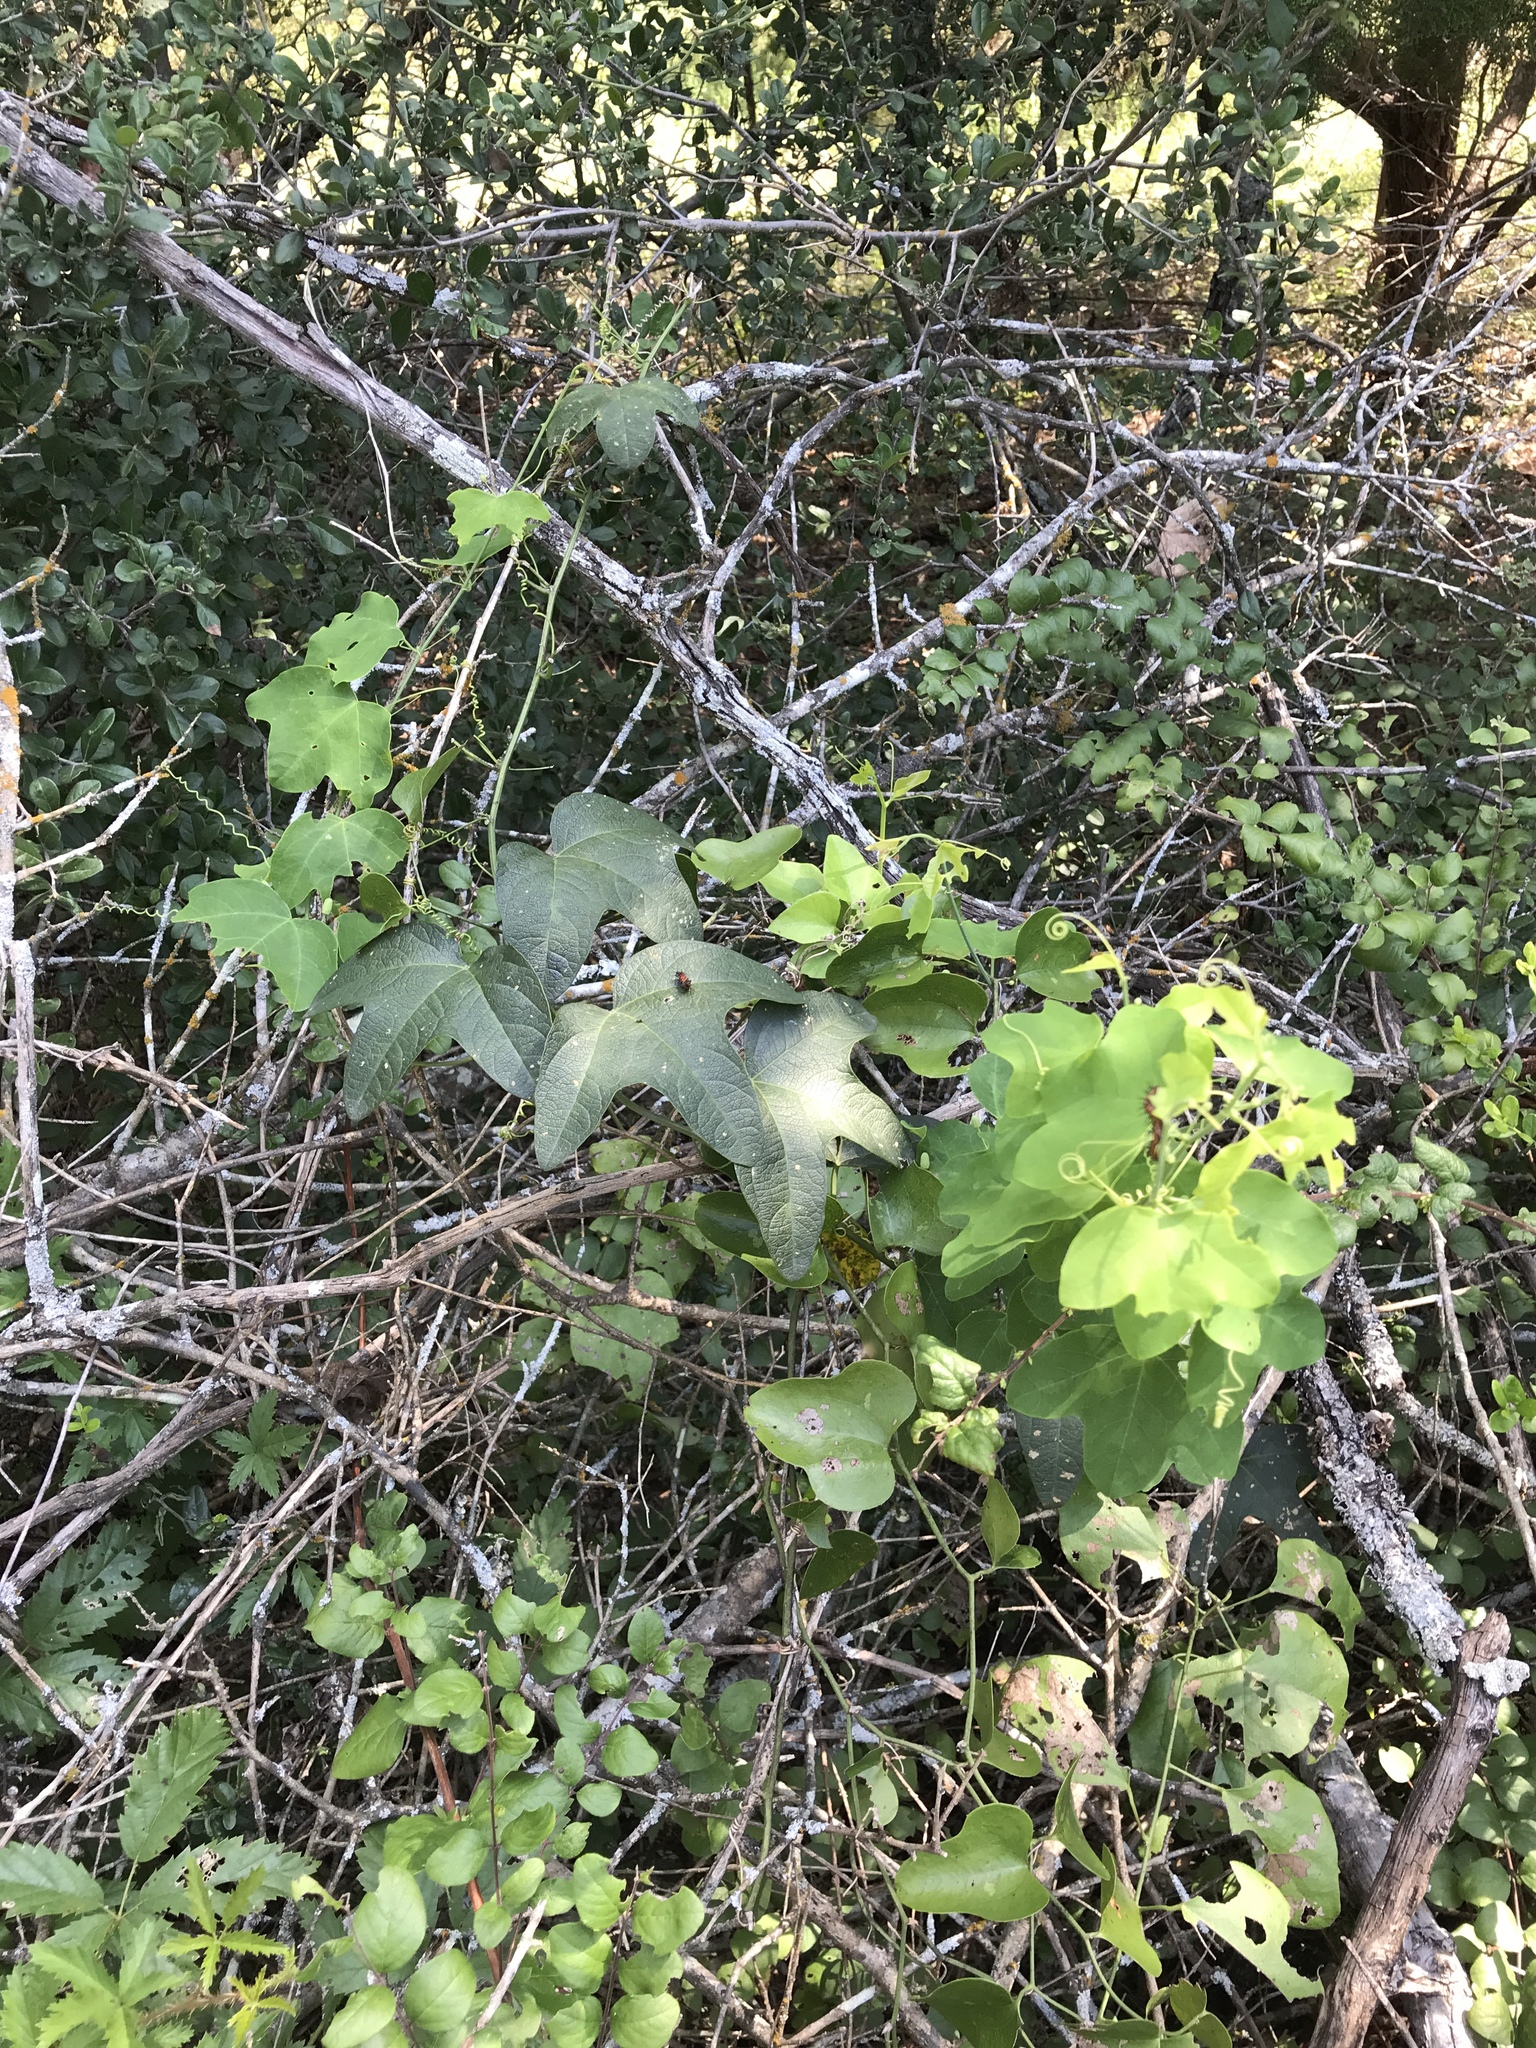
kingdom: Animalia
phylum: Arthropoda
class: Insecta
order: Lepidoptera
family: Nymphalidae
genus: Dione
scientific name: Dione vanillae
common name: Gulf fritillary
